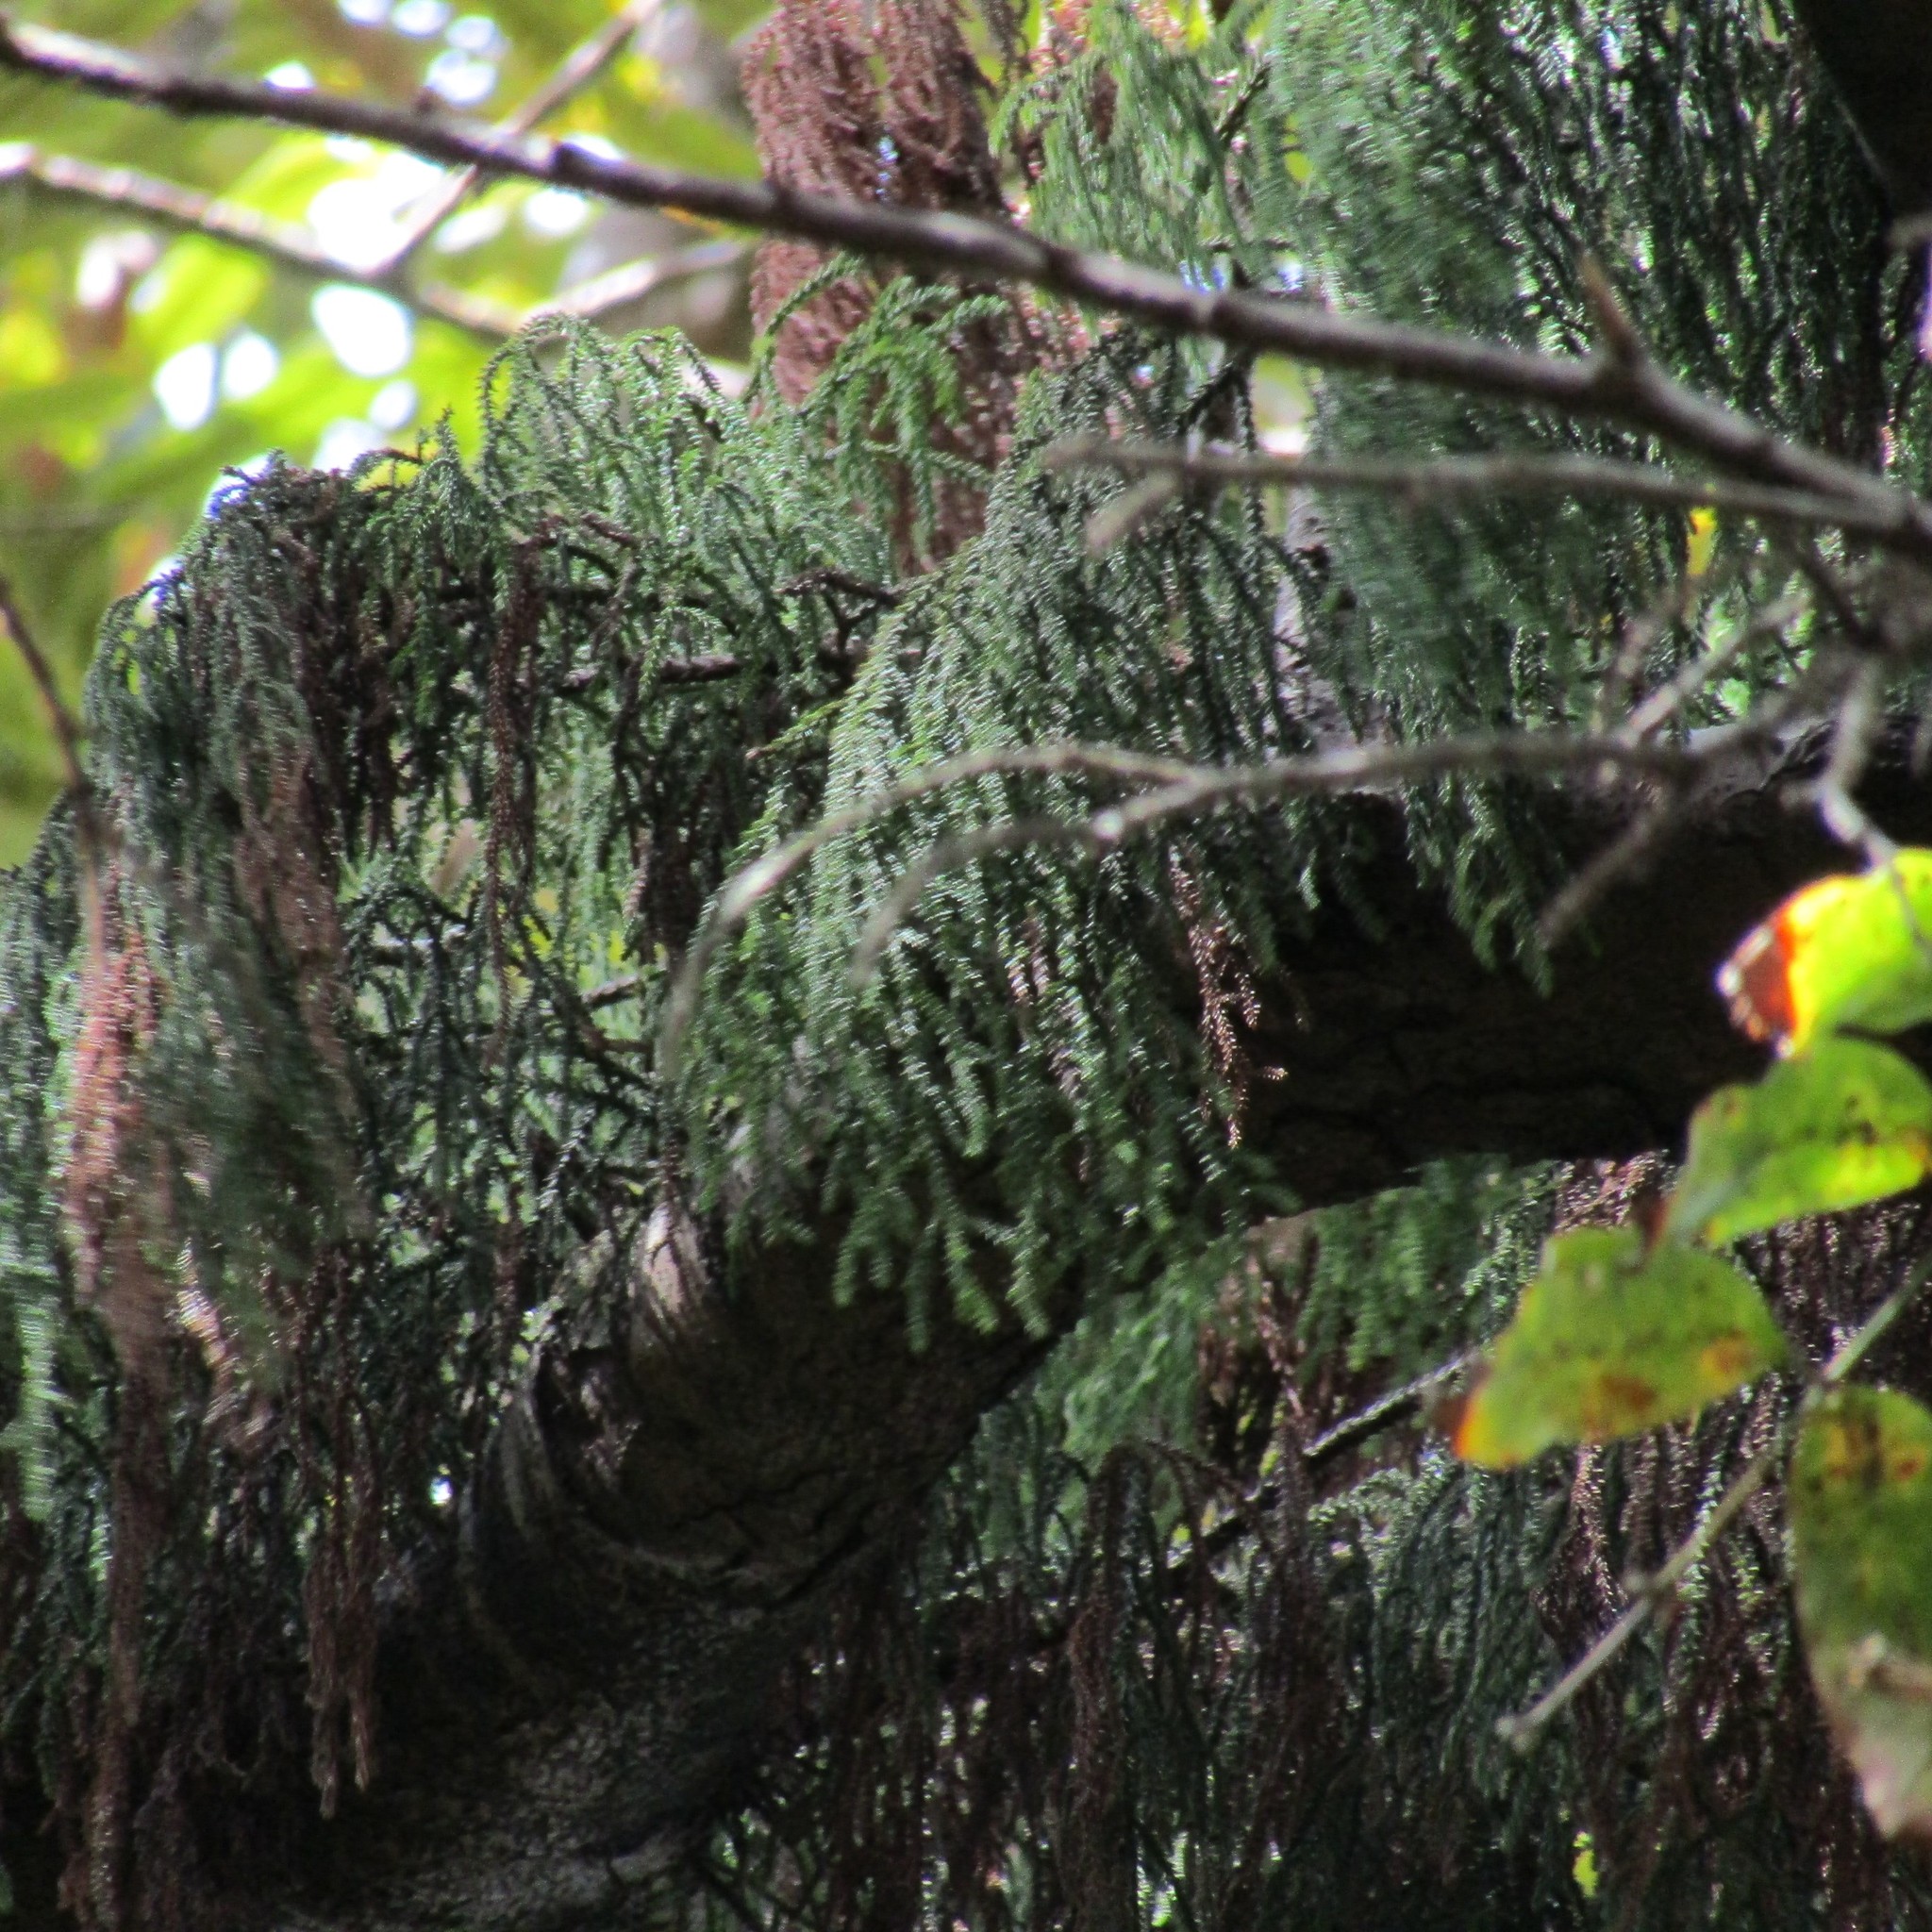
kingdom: Plantae
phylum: Tracheophyta
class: Pinopsida
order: Pinales
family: Podocarpaceae
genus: Dacrydium
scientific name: Dacrydium cupressinum
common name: Red pine
